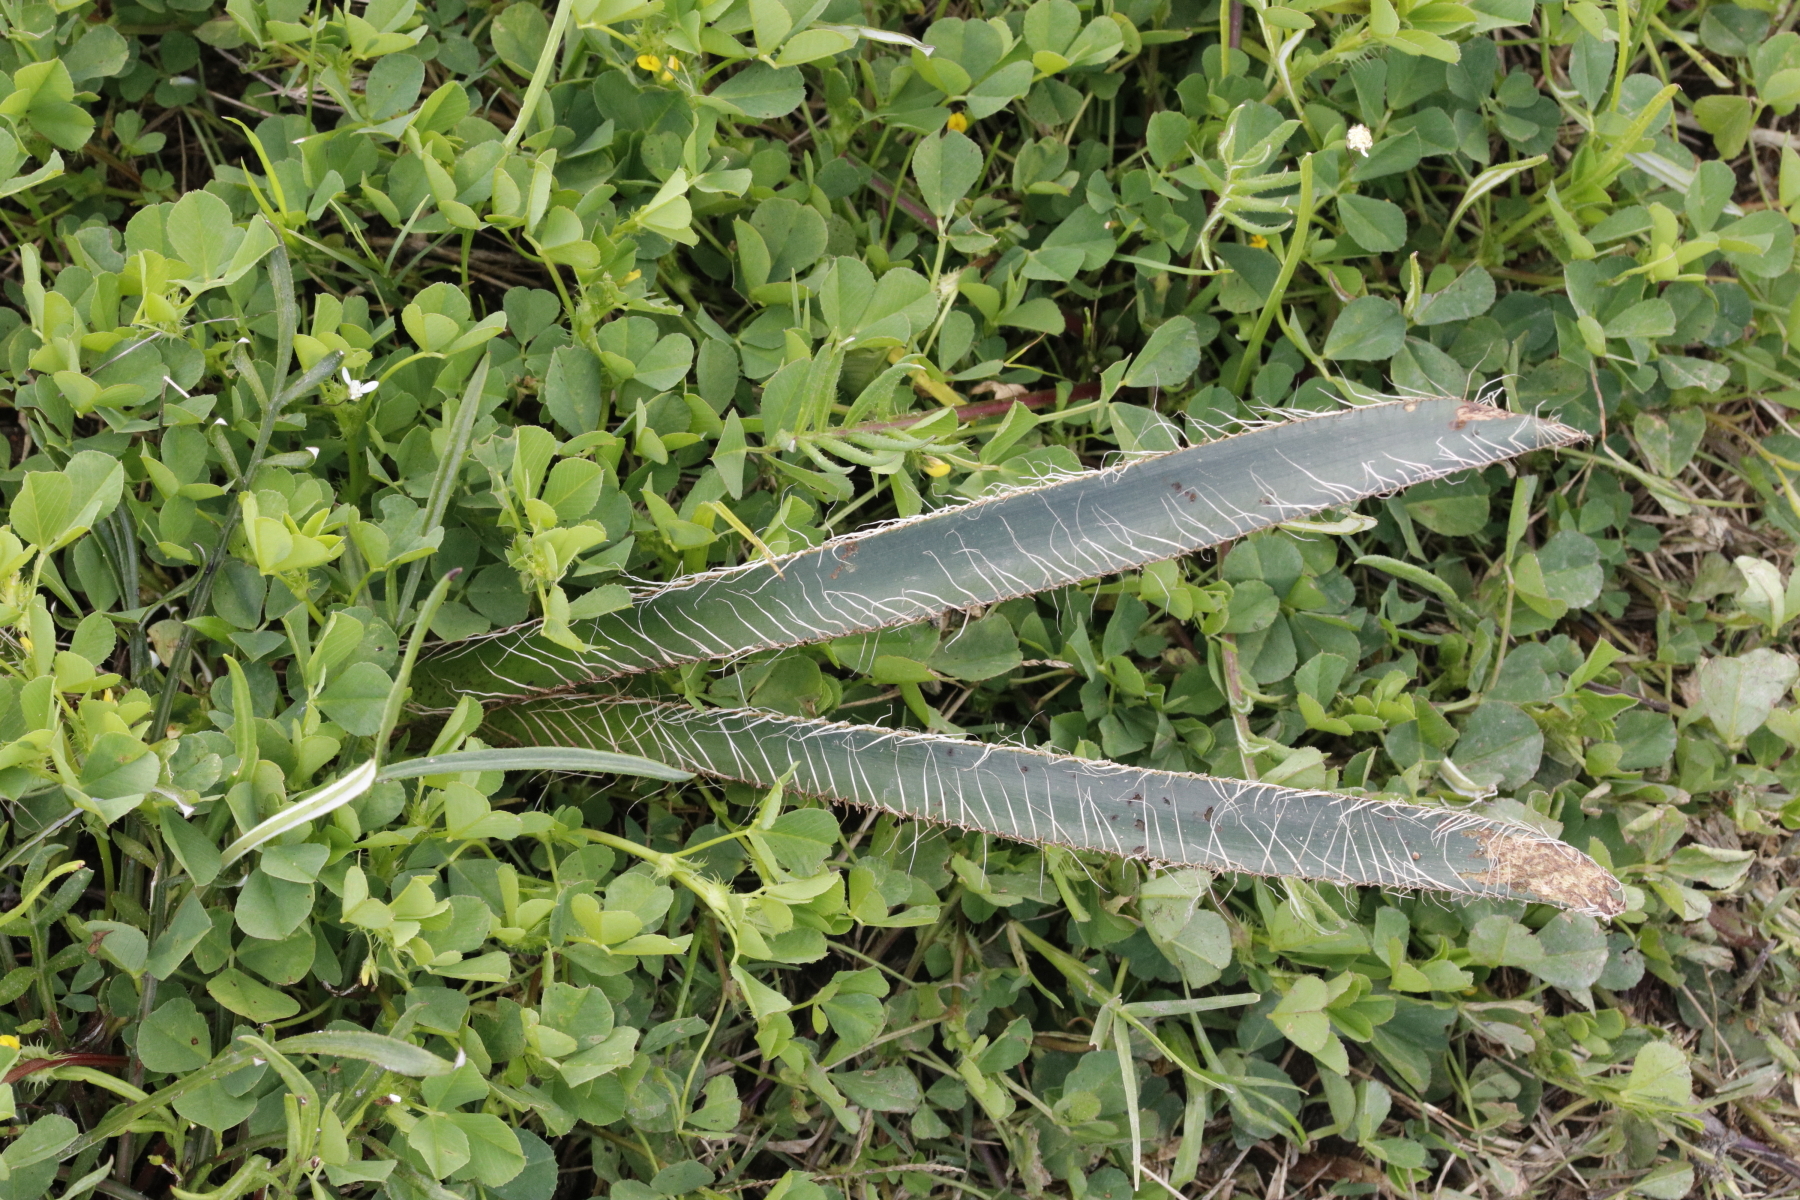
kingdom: Plantae
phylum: Tracheophyta
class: Liliopsida
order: Asparagales
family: Amaryllidaceae
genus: Crossyne
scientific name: Crossyne guttata
